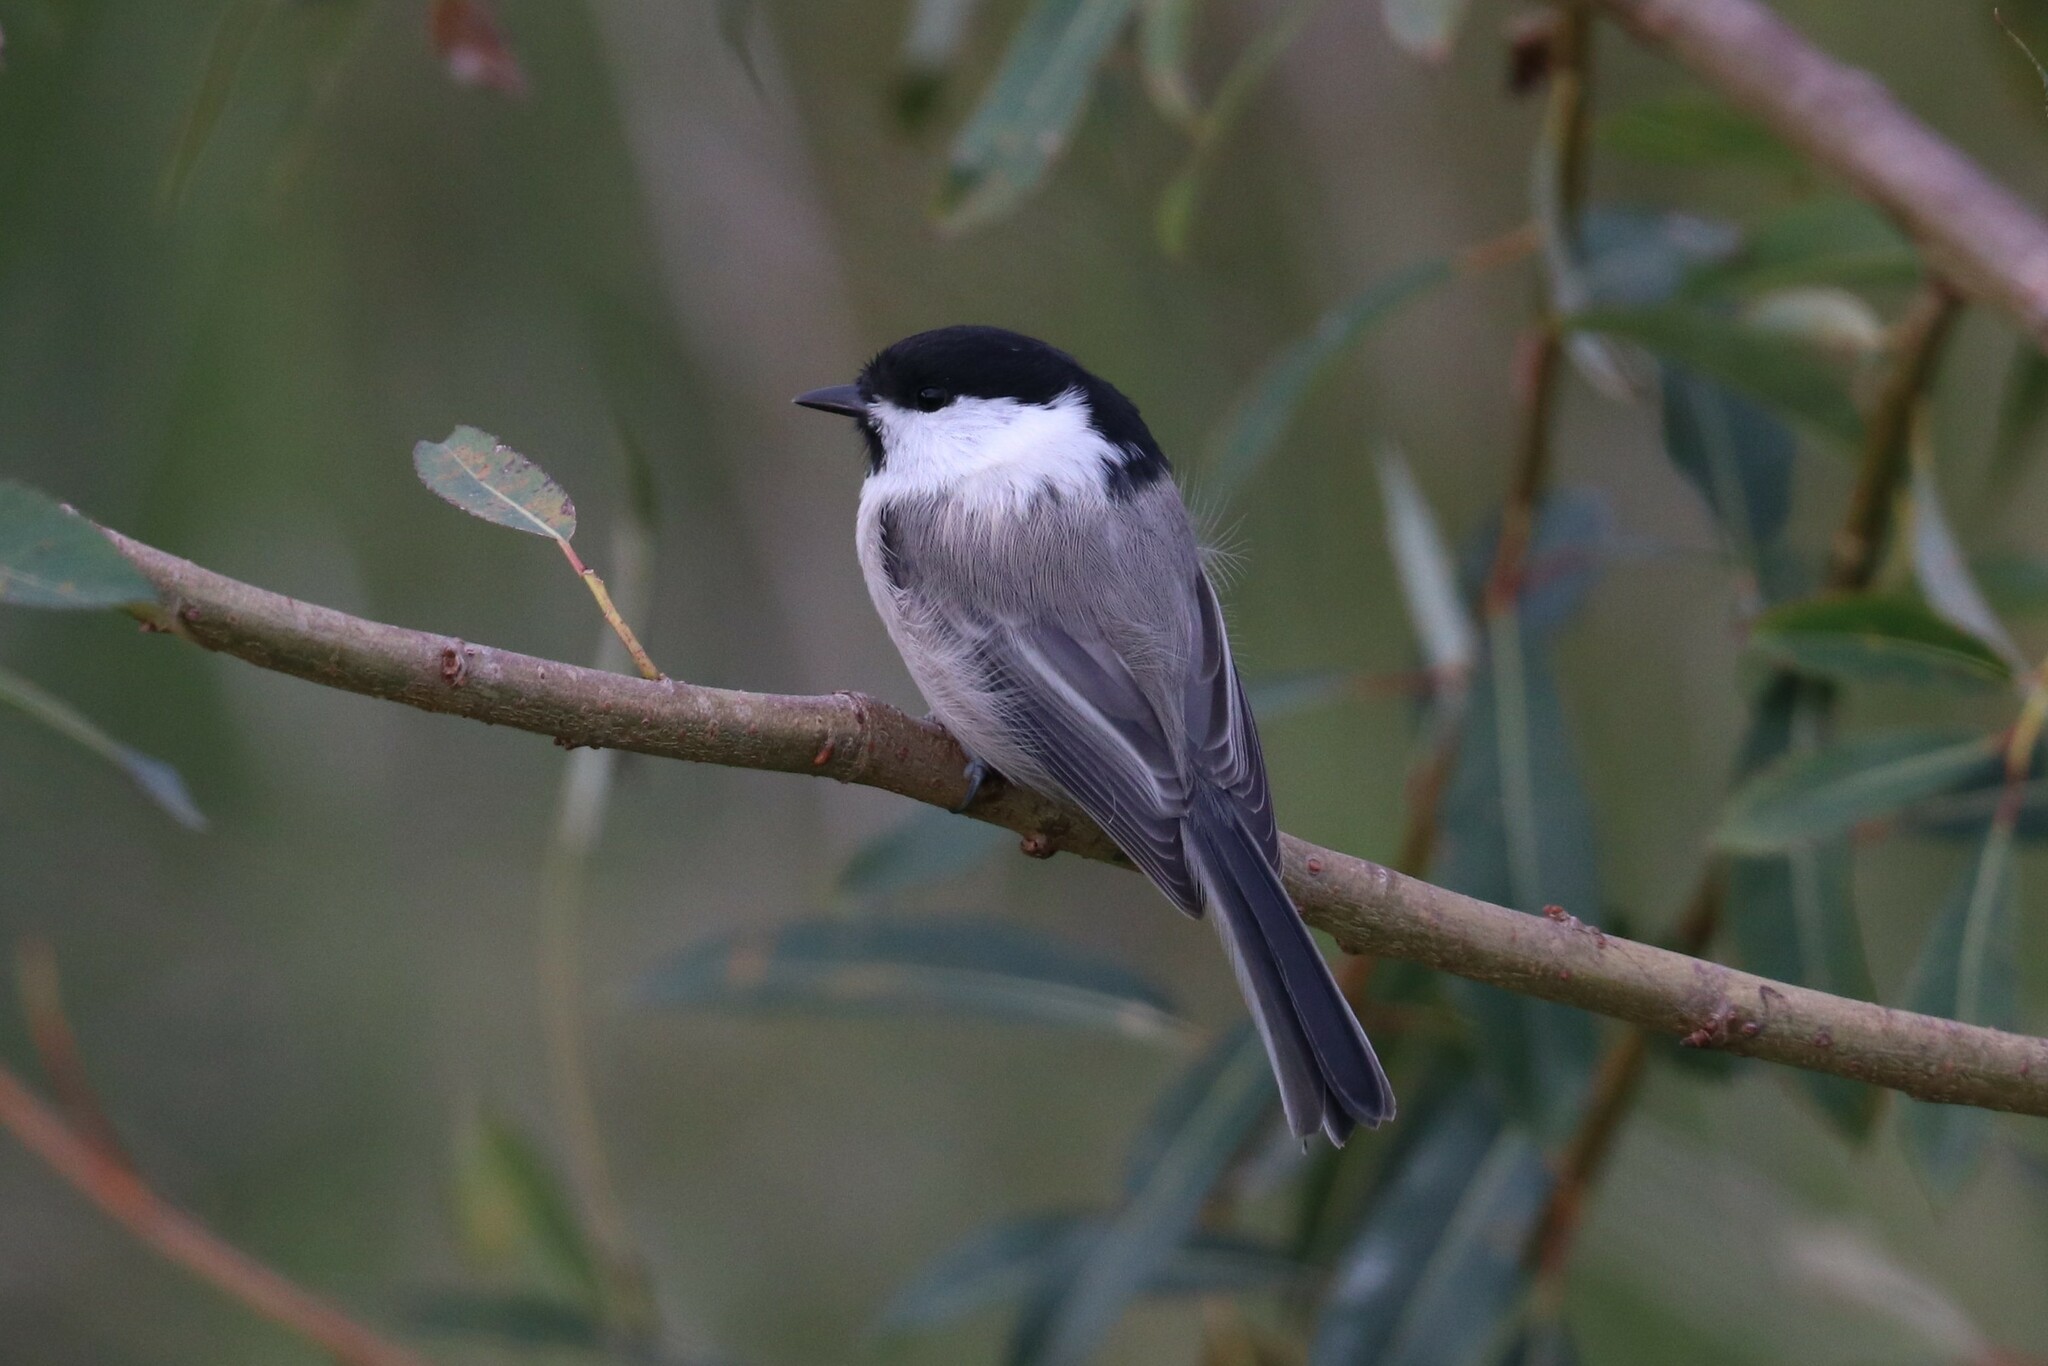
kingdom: Animalia
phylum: Chordata
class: Aves
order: Passeriformes
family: Paridae
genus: Poecile
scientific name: Poecile montanus
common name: Willow tit
